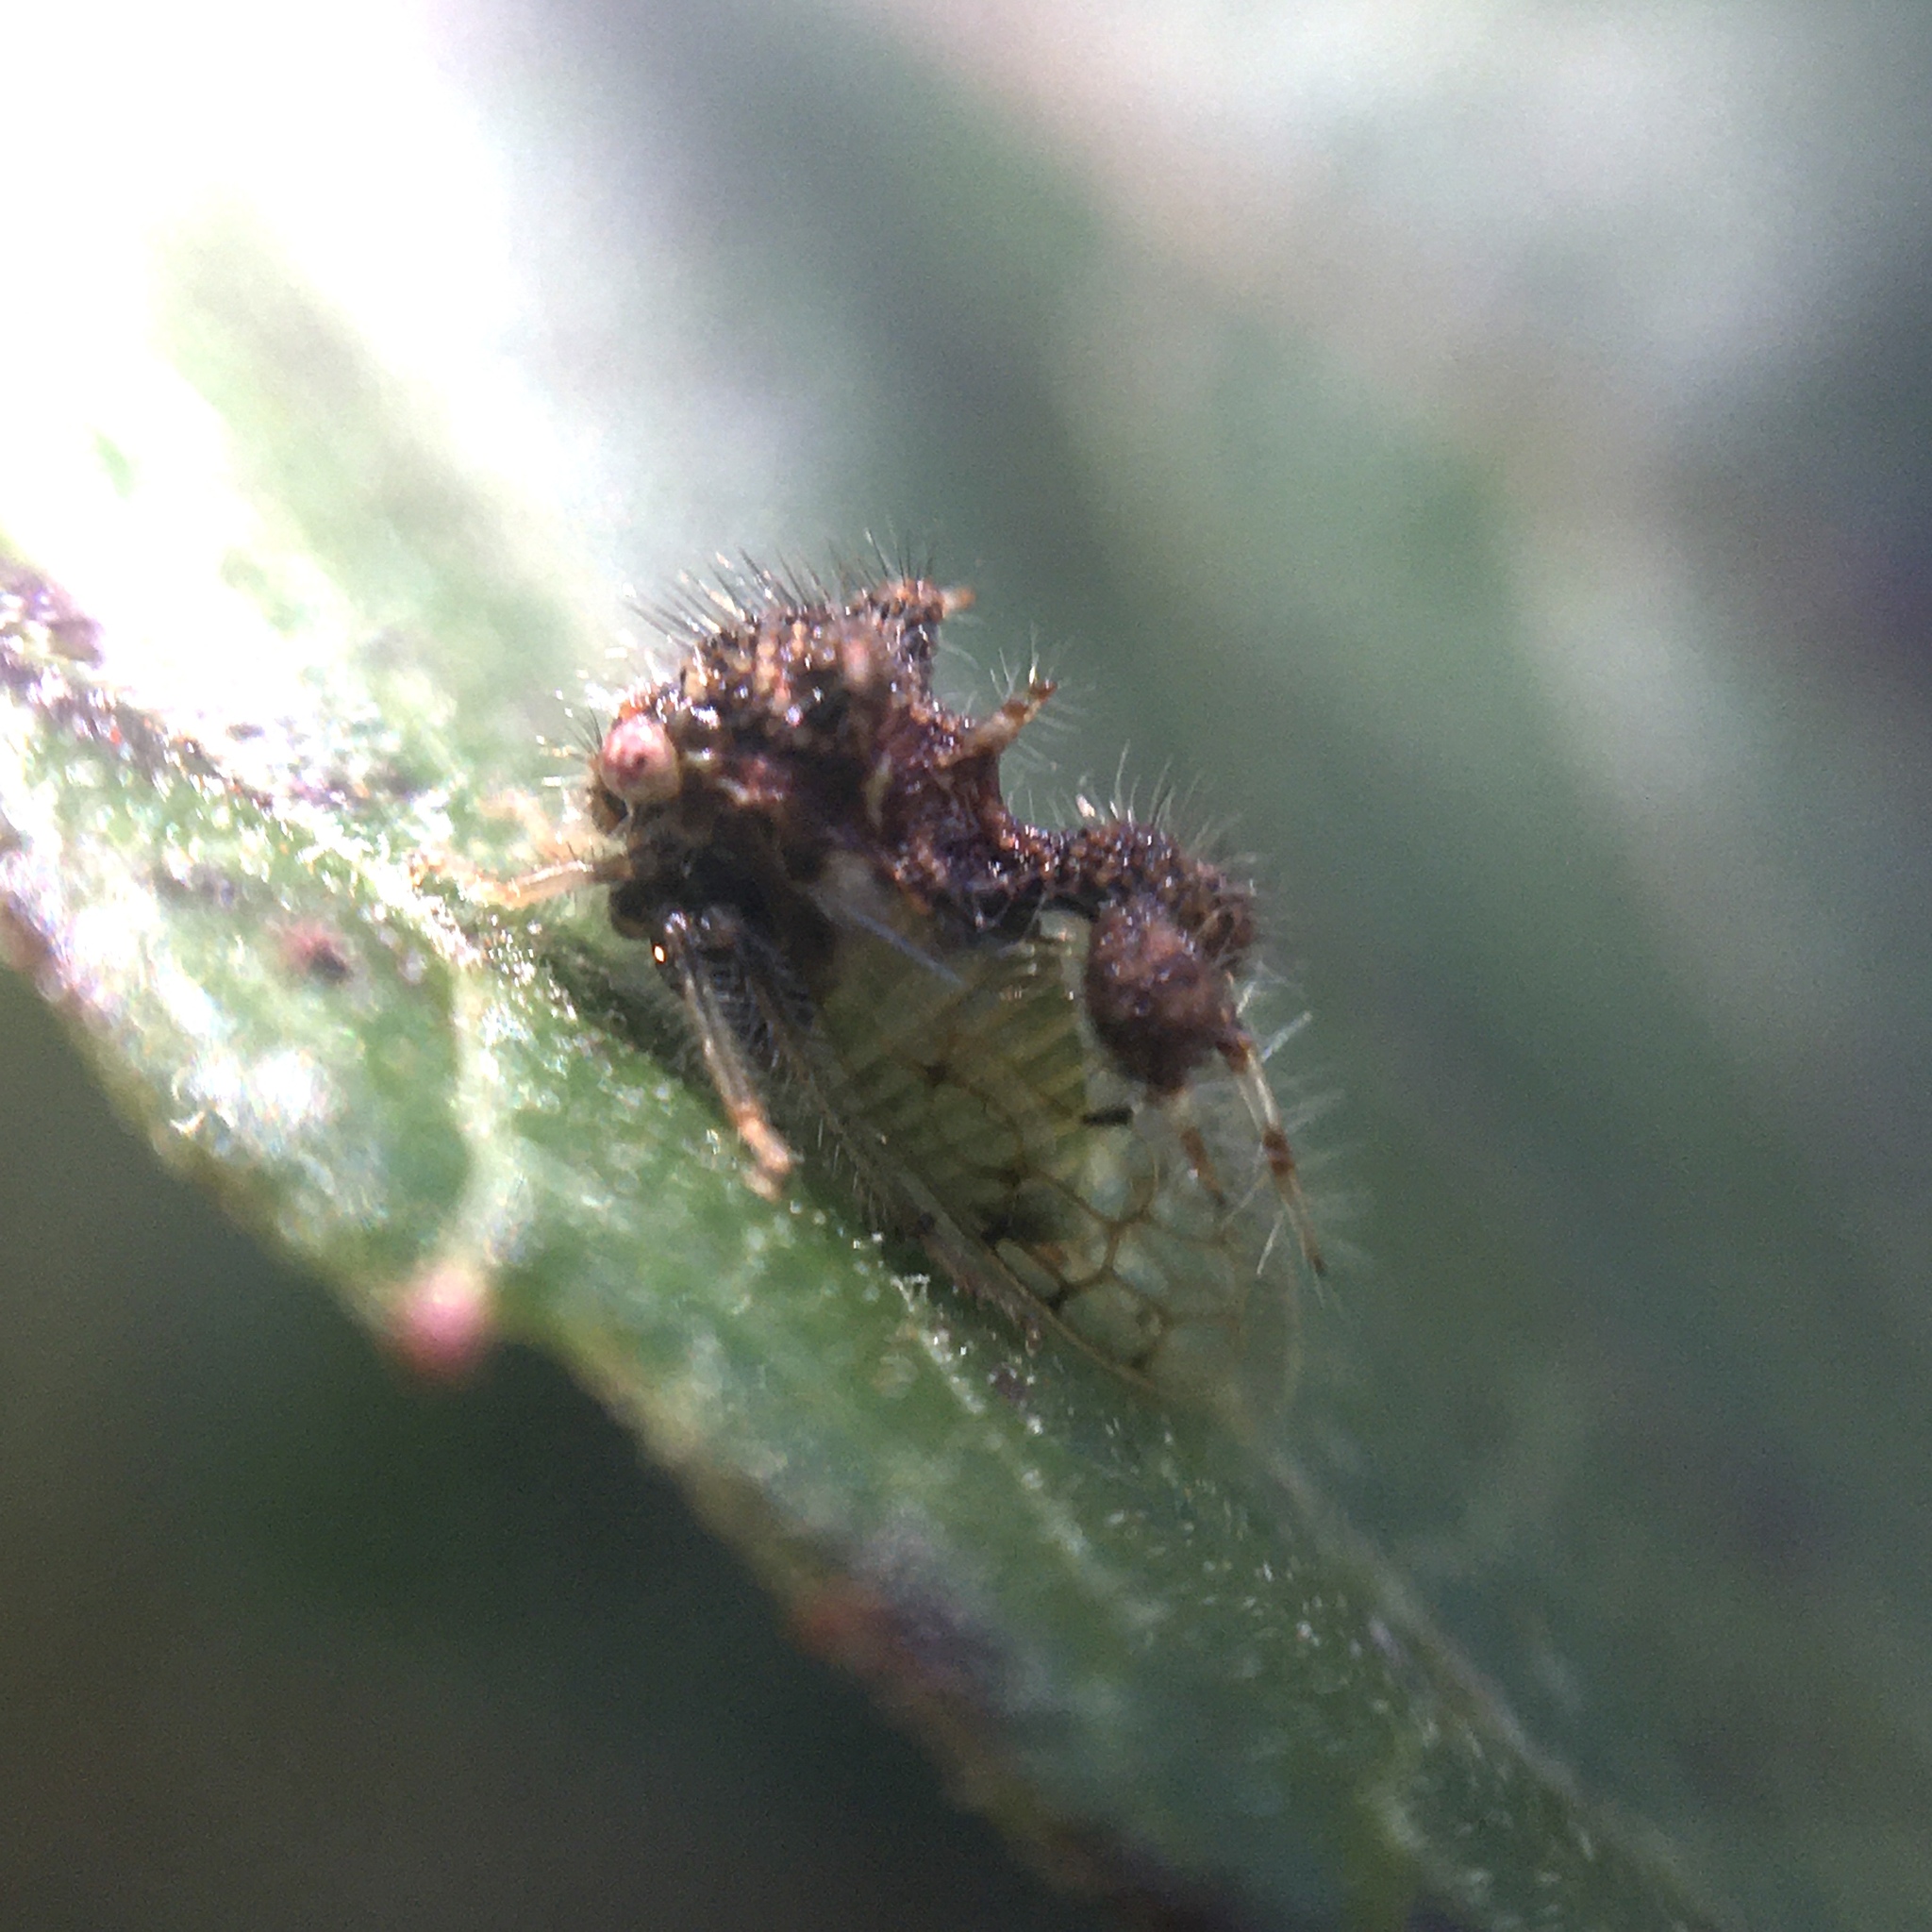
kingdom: Animalia
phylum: Arthropoda
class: Insecta
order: Hemiptera
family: Membracidae
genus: Cyphonia
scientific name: Cyphonia claviger
